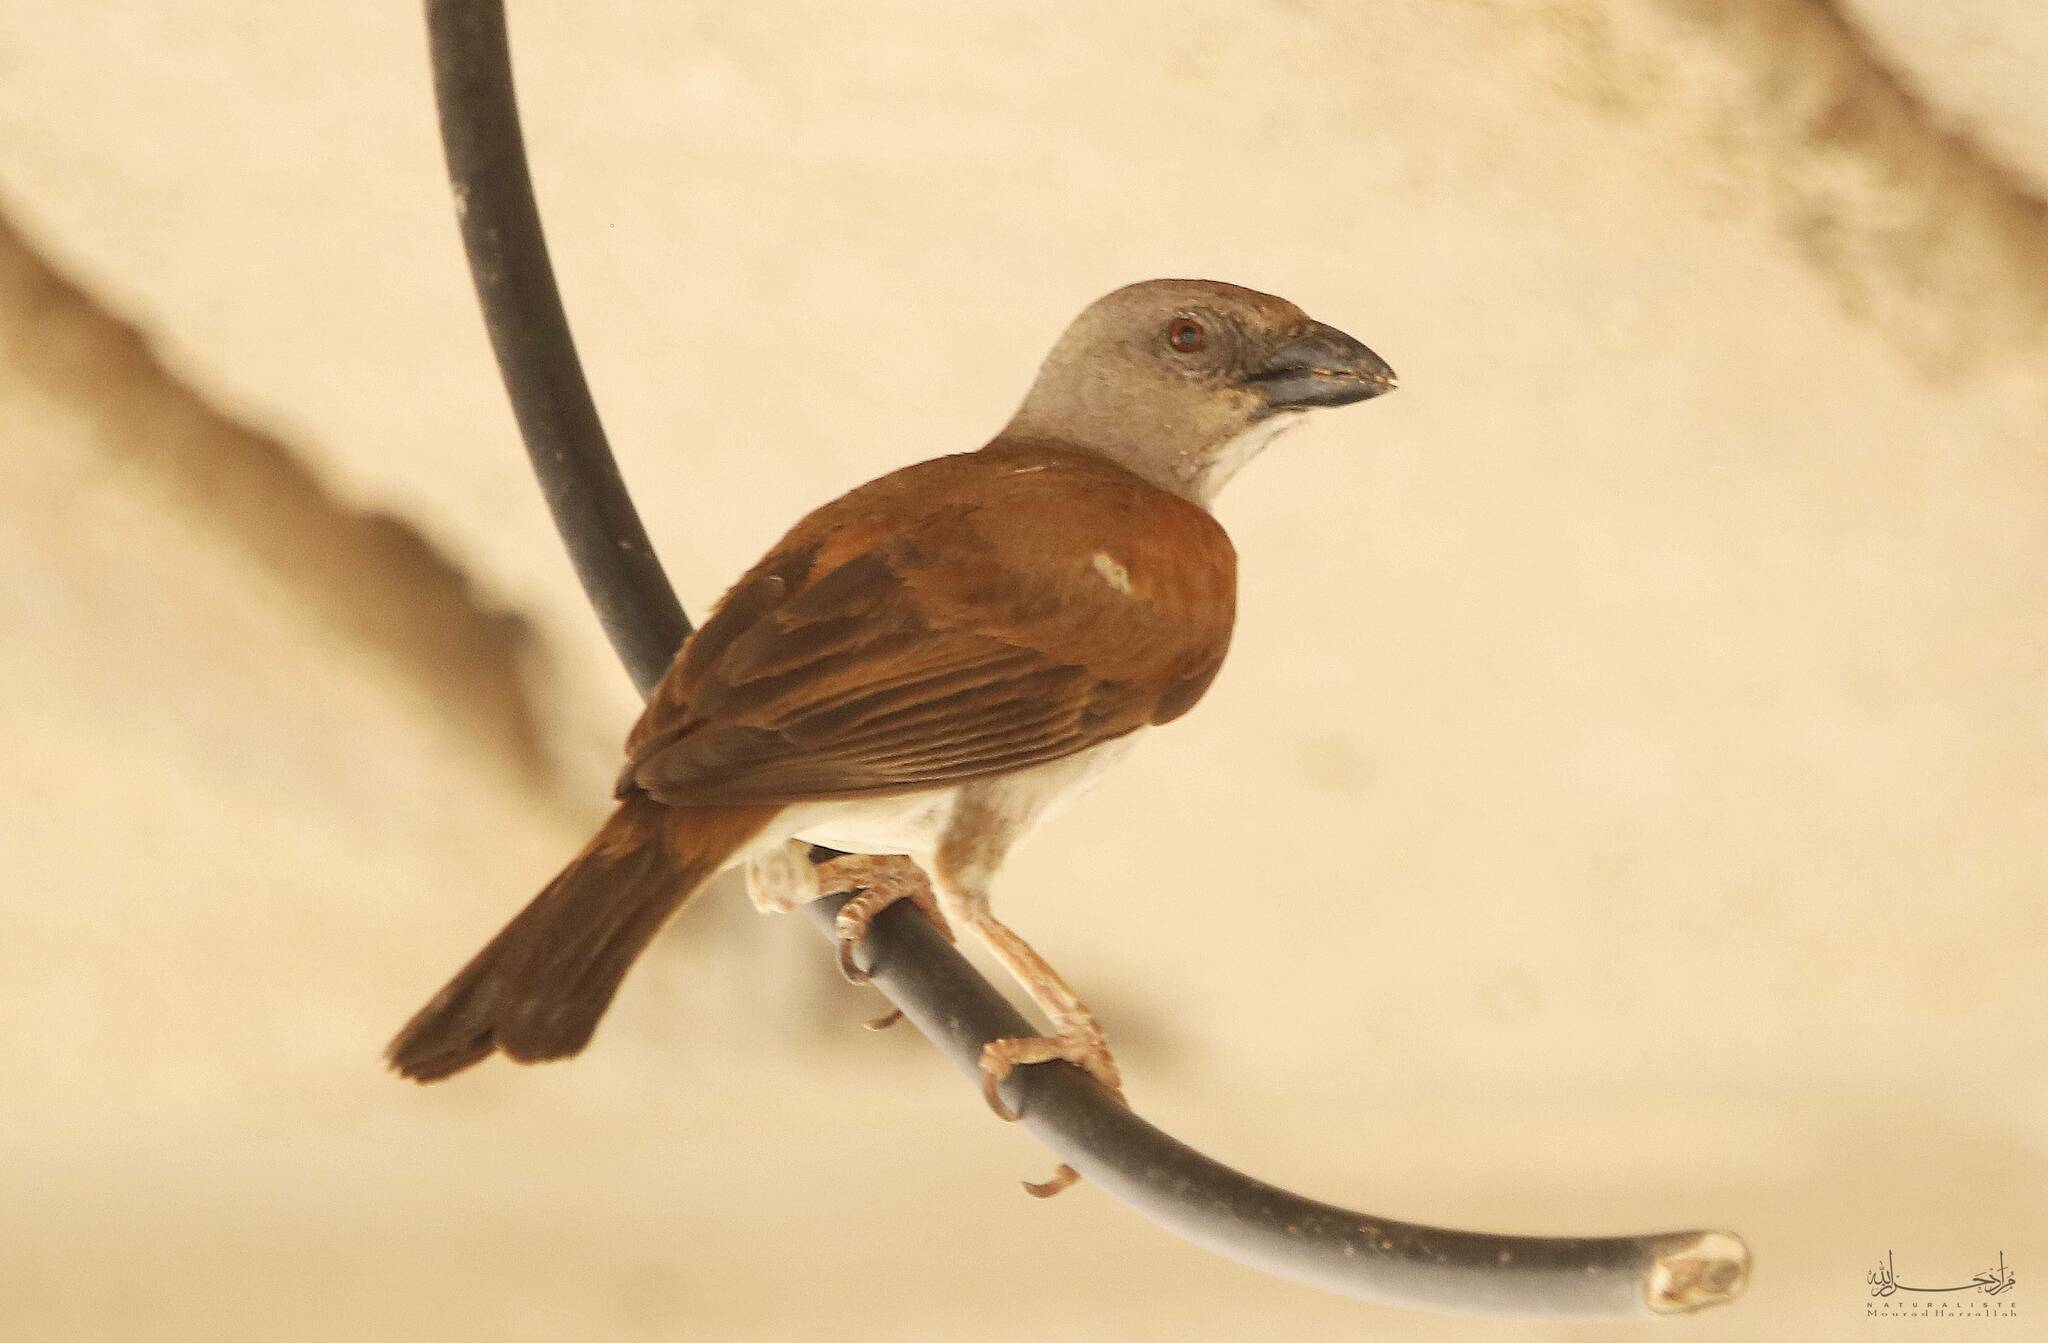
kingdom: Animalia
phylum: Chordata
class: Aves
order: Passeriformes
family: Passeridae
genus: Passer
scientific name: Passer griseus
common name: Northern grey-headed sparrow
